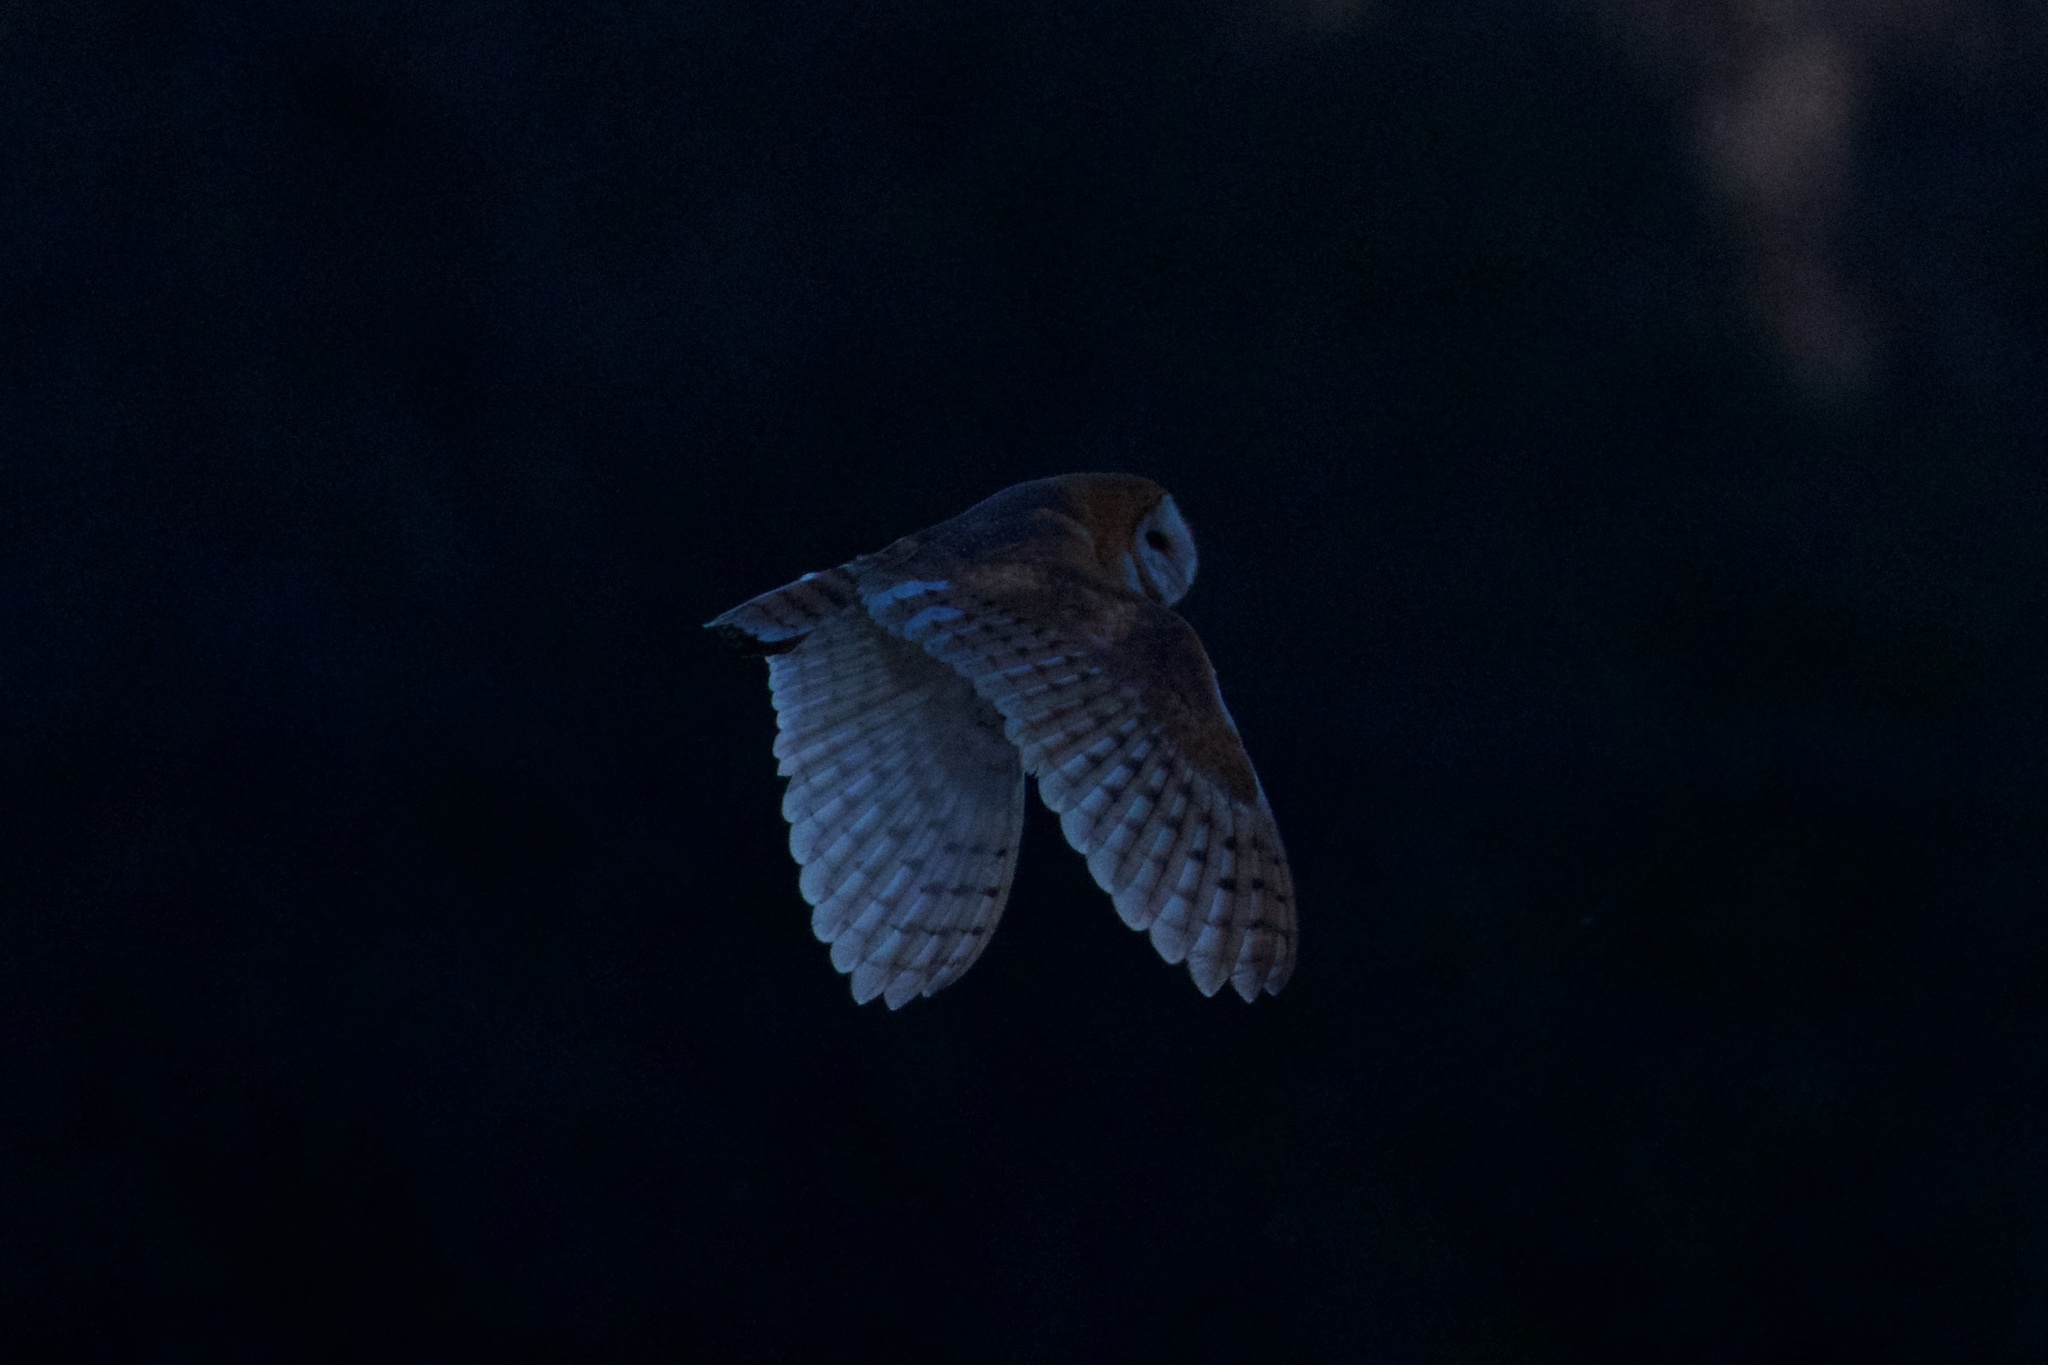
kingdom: Animalia
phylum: Chordata
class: Aves
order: Strigiformes
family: Tytonidae
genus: Tyto
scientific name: Tyto alba
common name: Barn owl
